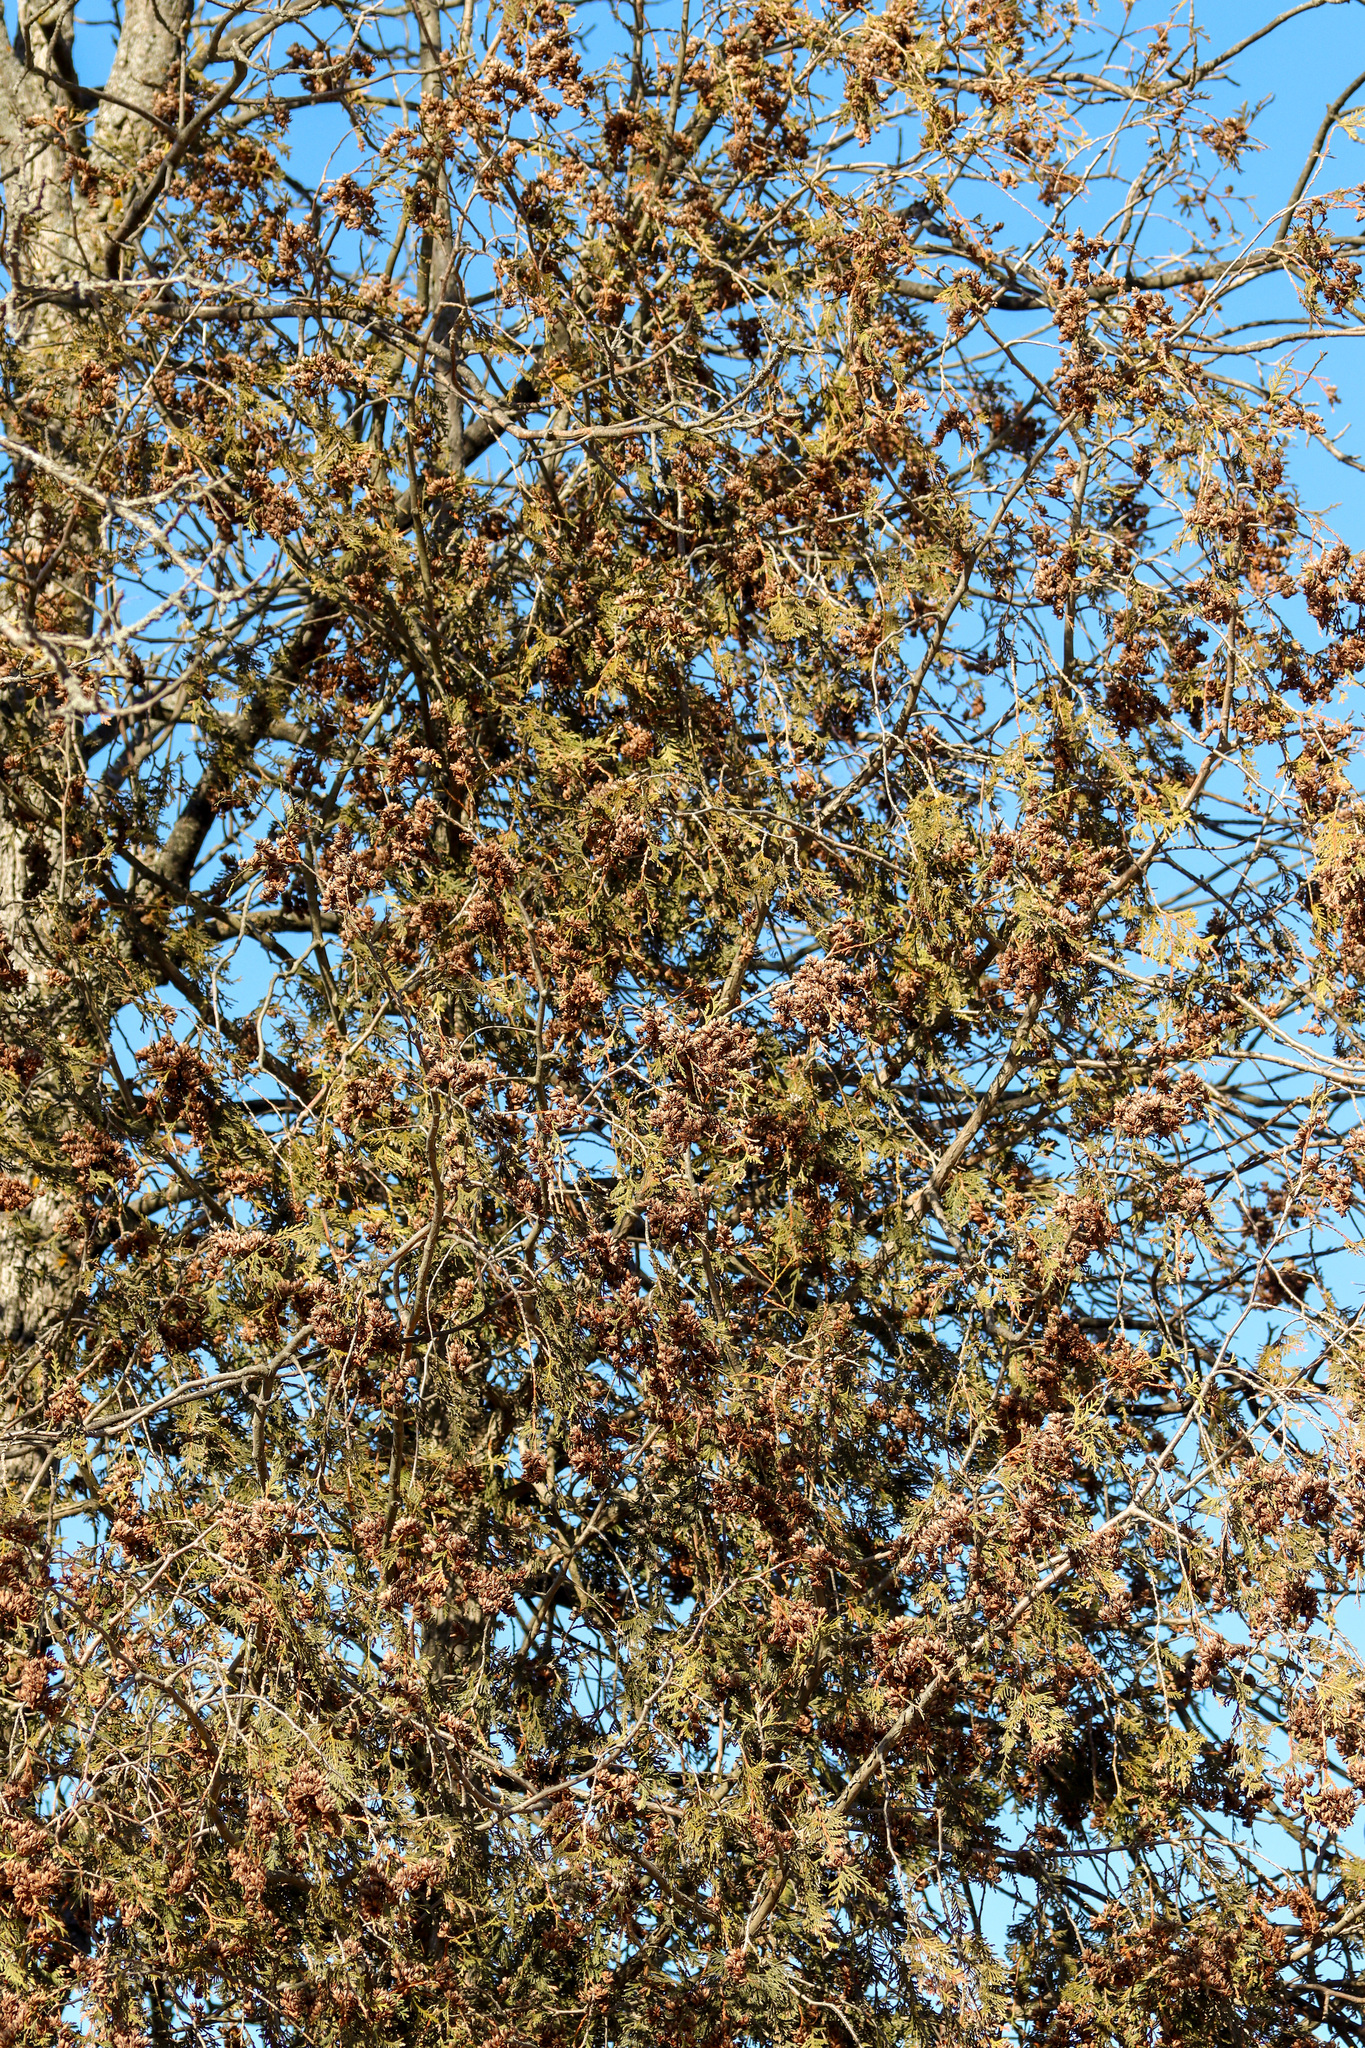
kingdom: Plantae
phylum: Tracheophyta
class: Pinopsida
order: Pinales
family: Cupressaceae
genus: Thuja
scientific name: Thuja occidentalis
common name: Northern white-cedar
